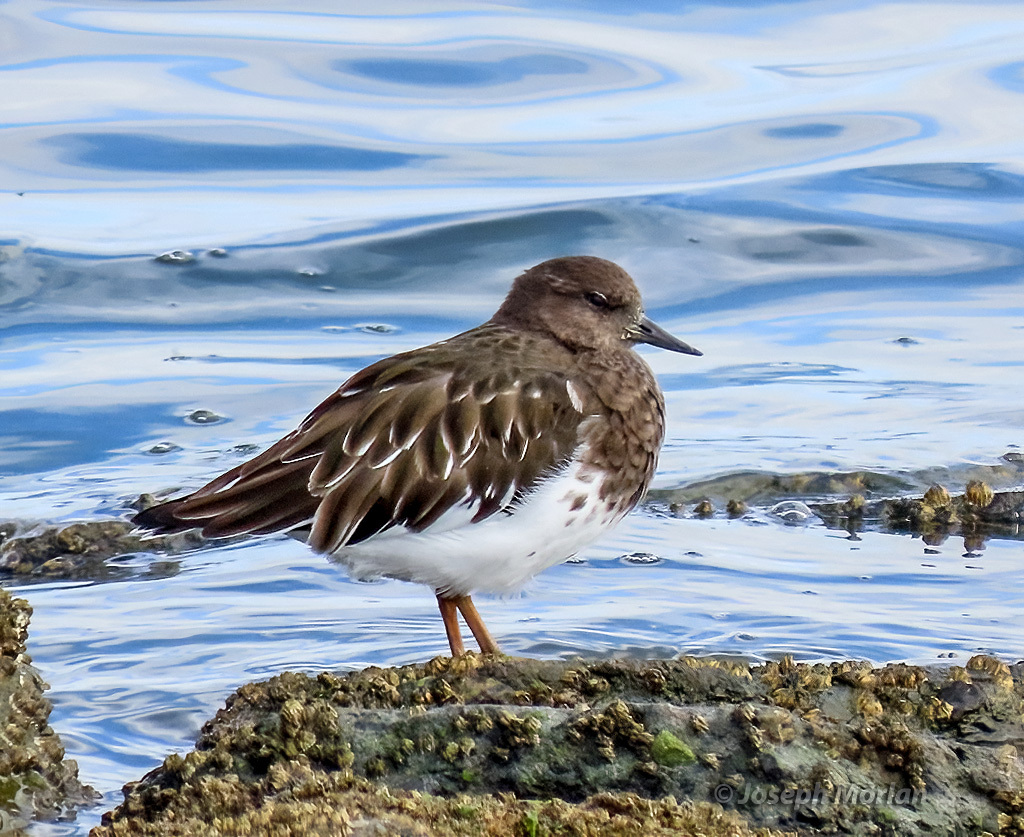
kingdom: Animalia
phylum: Chordata
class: Aves
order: Charadriiformes
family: Scolopacidae
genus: Arenaria
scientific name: Arenaria melanocephala
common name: Black turnstone
